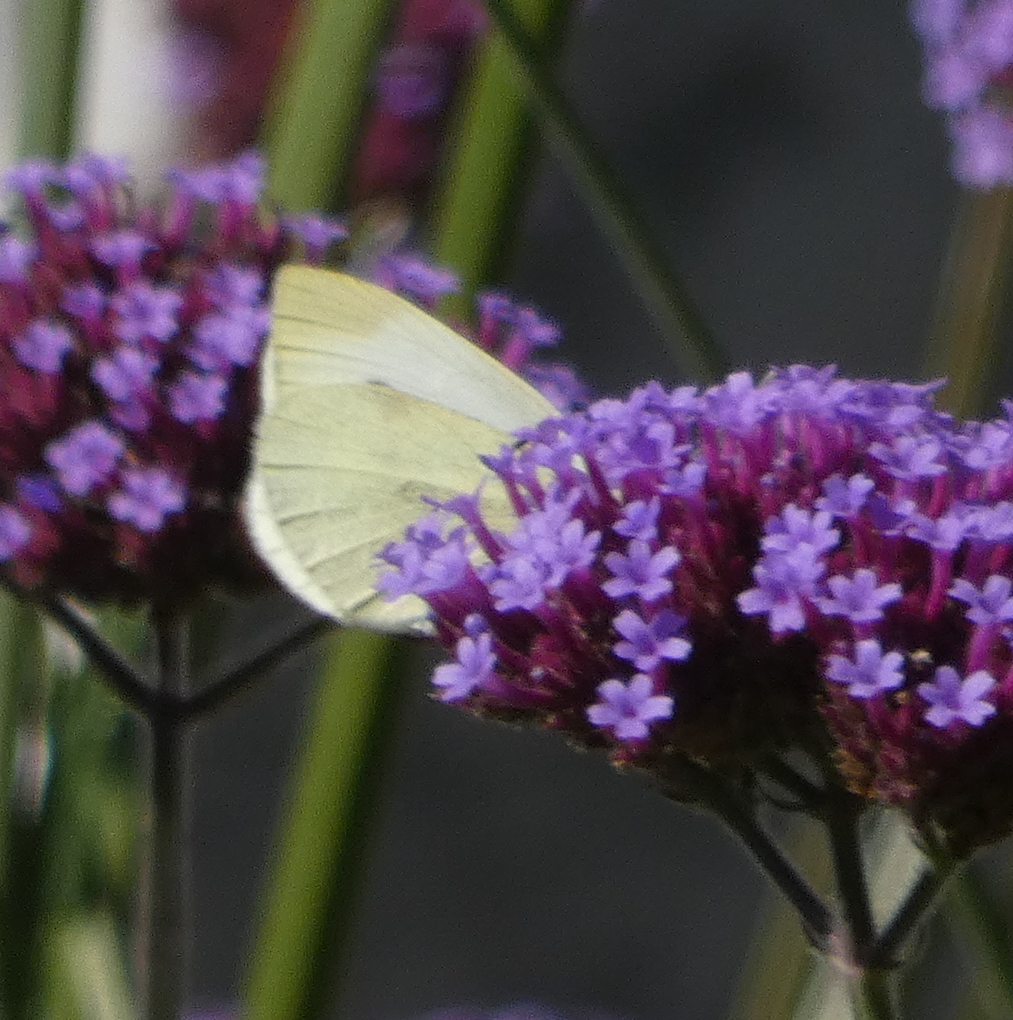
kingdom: Animalia
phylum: Arthropoda
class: Insecta
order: Lepidoptera
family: Pieridae
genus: Pieris
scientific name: Pieris rapae
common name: Small white
